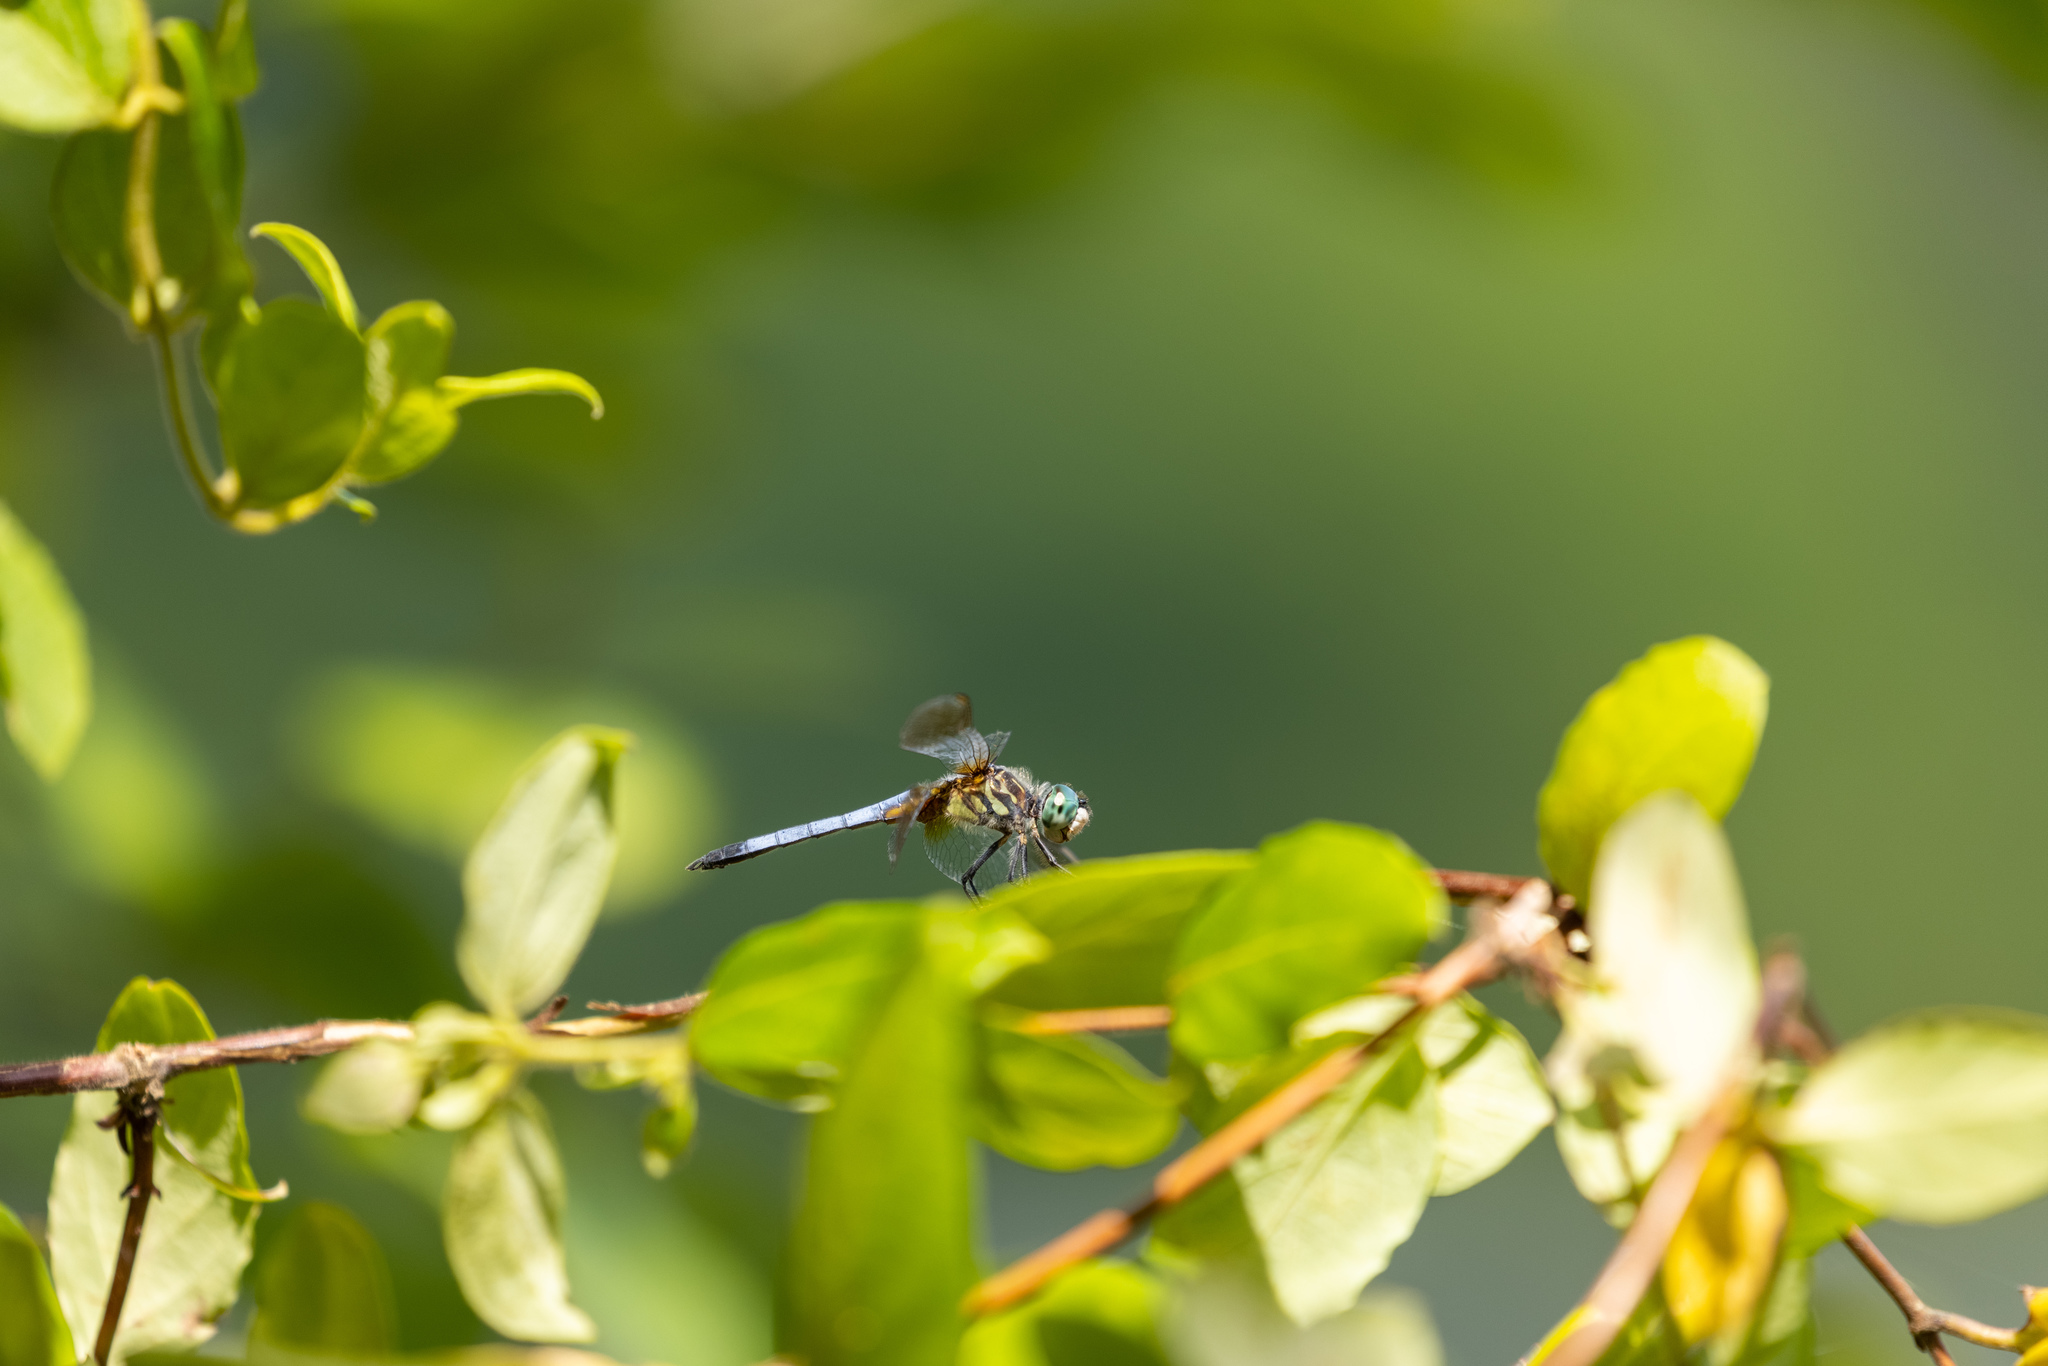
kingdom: Animalia
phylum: Arthropoda
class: Insecta
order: Odonata
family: Libellulidae
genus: Pachydiplax
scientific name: Pachydiplax longipennis
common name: Blue dasher
